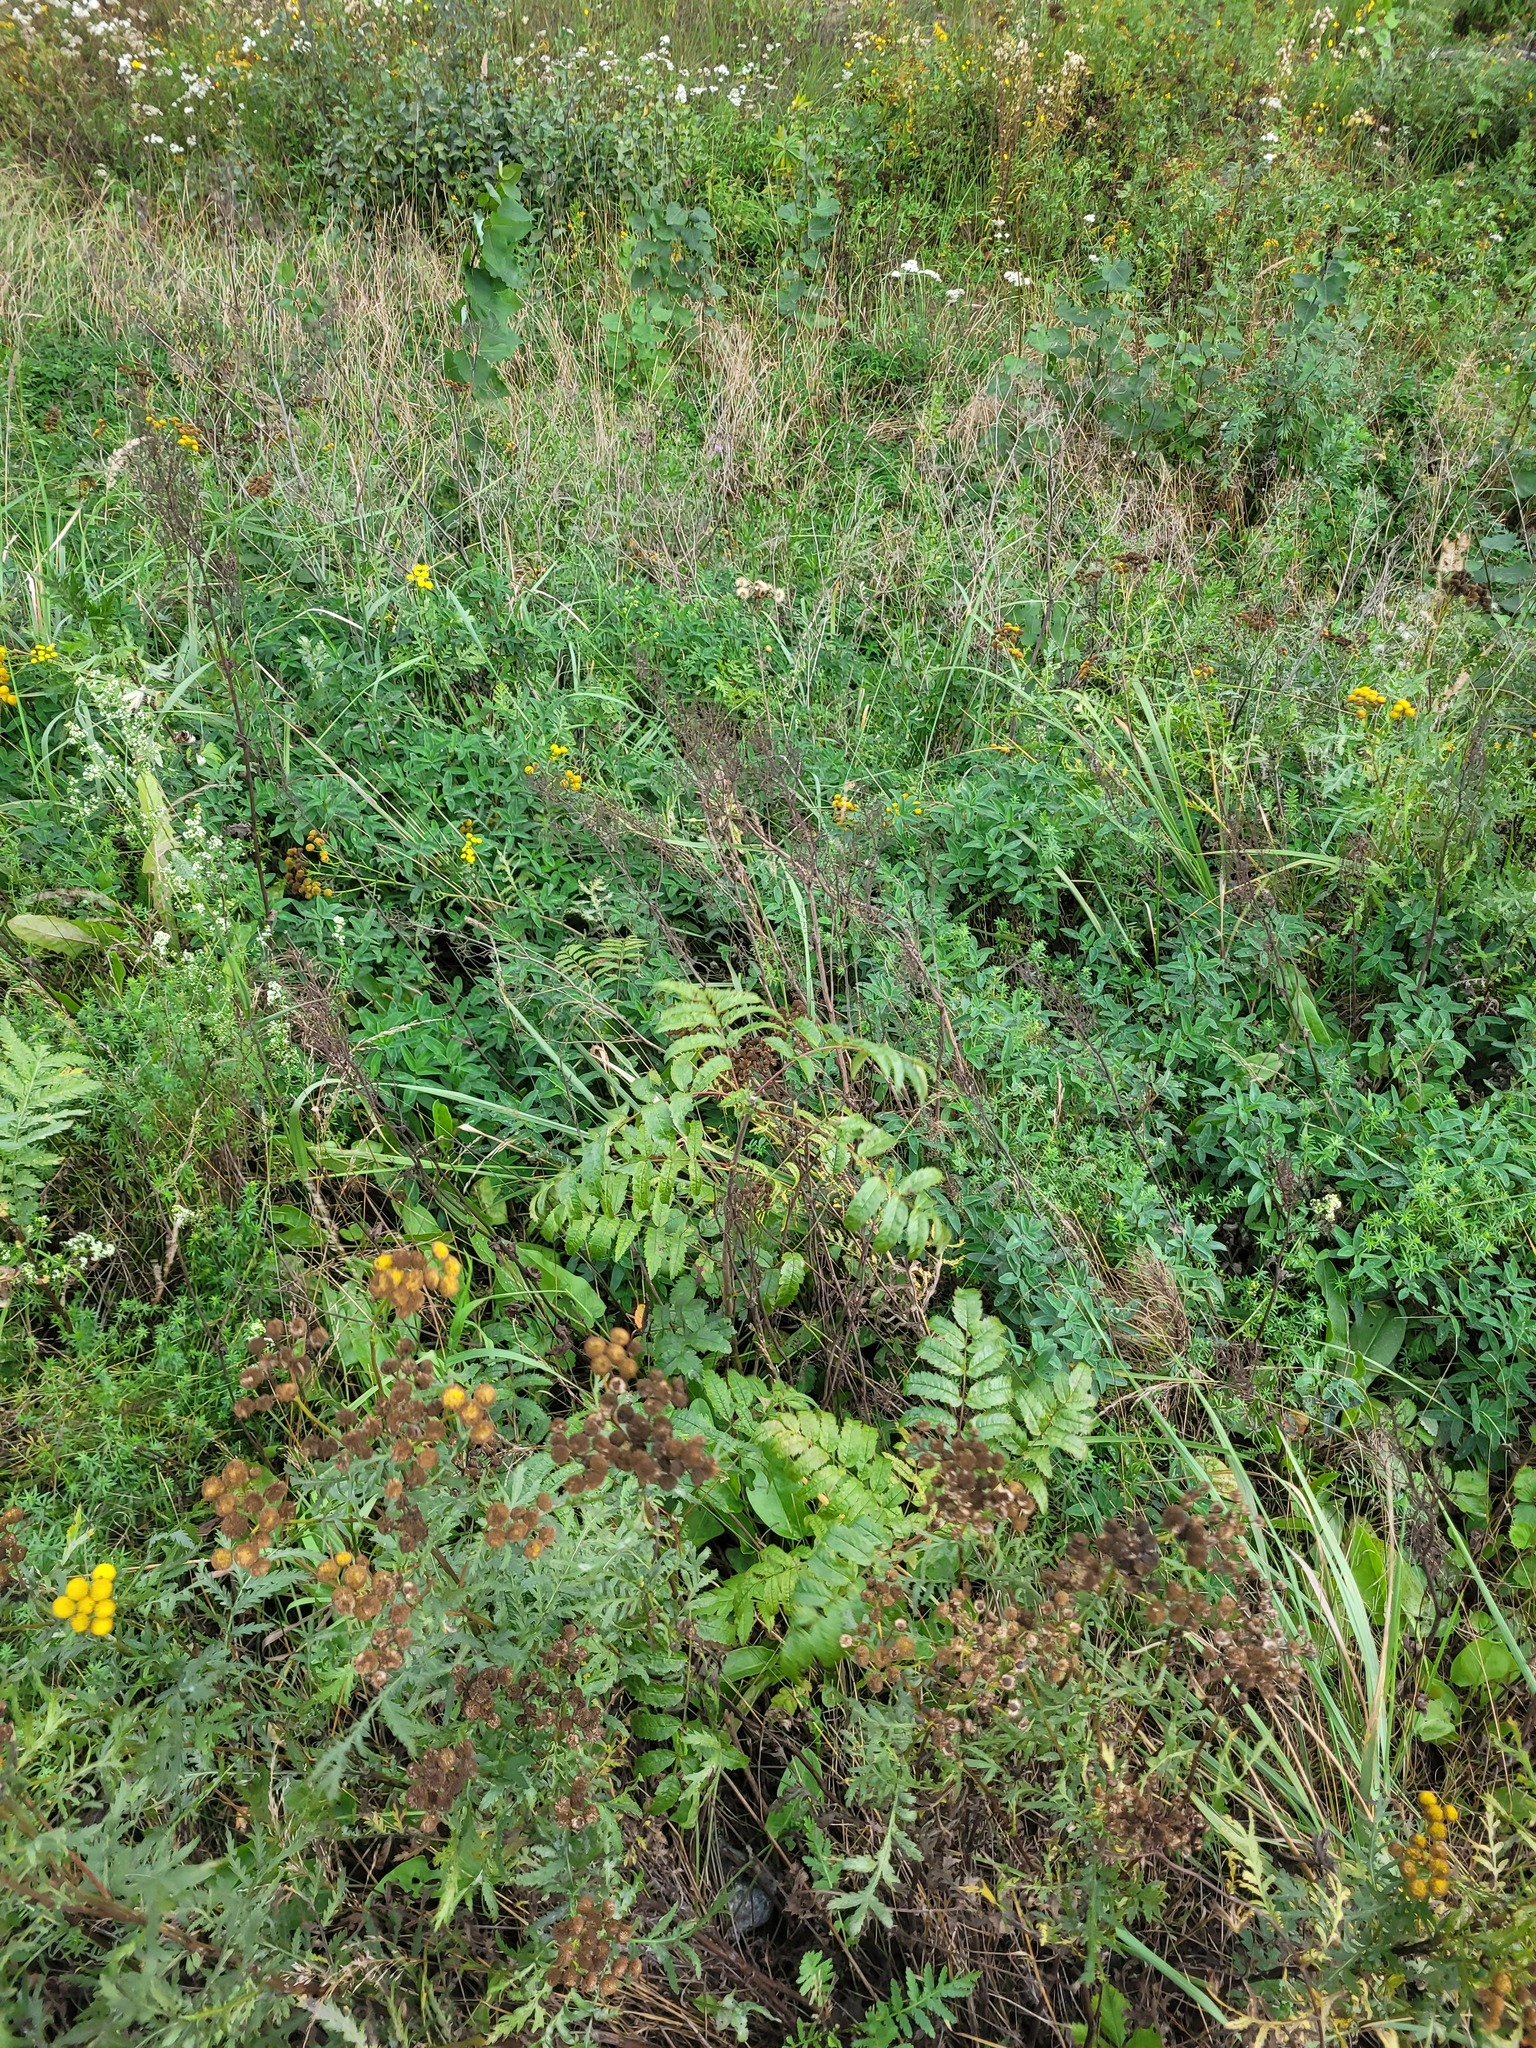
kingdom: Plantae
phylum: Tracheophyta
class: Magnoliopsida
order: Rosales
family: Rosaceae
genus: Sorbus
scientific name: Sorbus aucuparia
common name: Rowan
